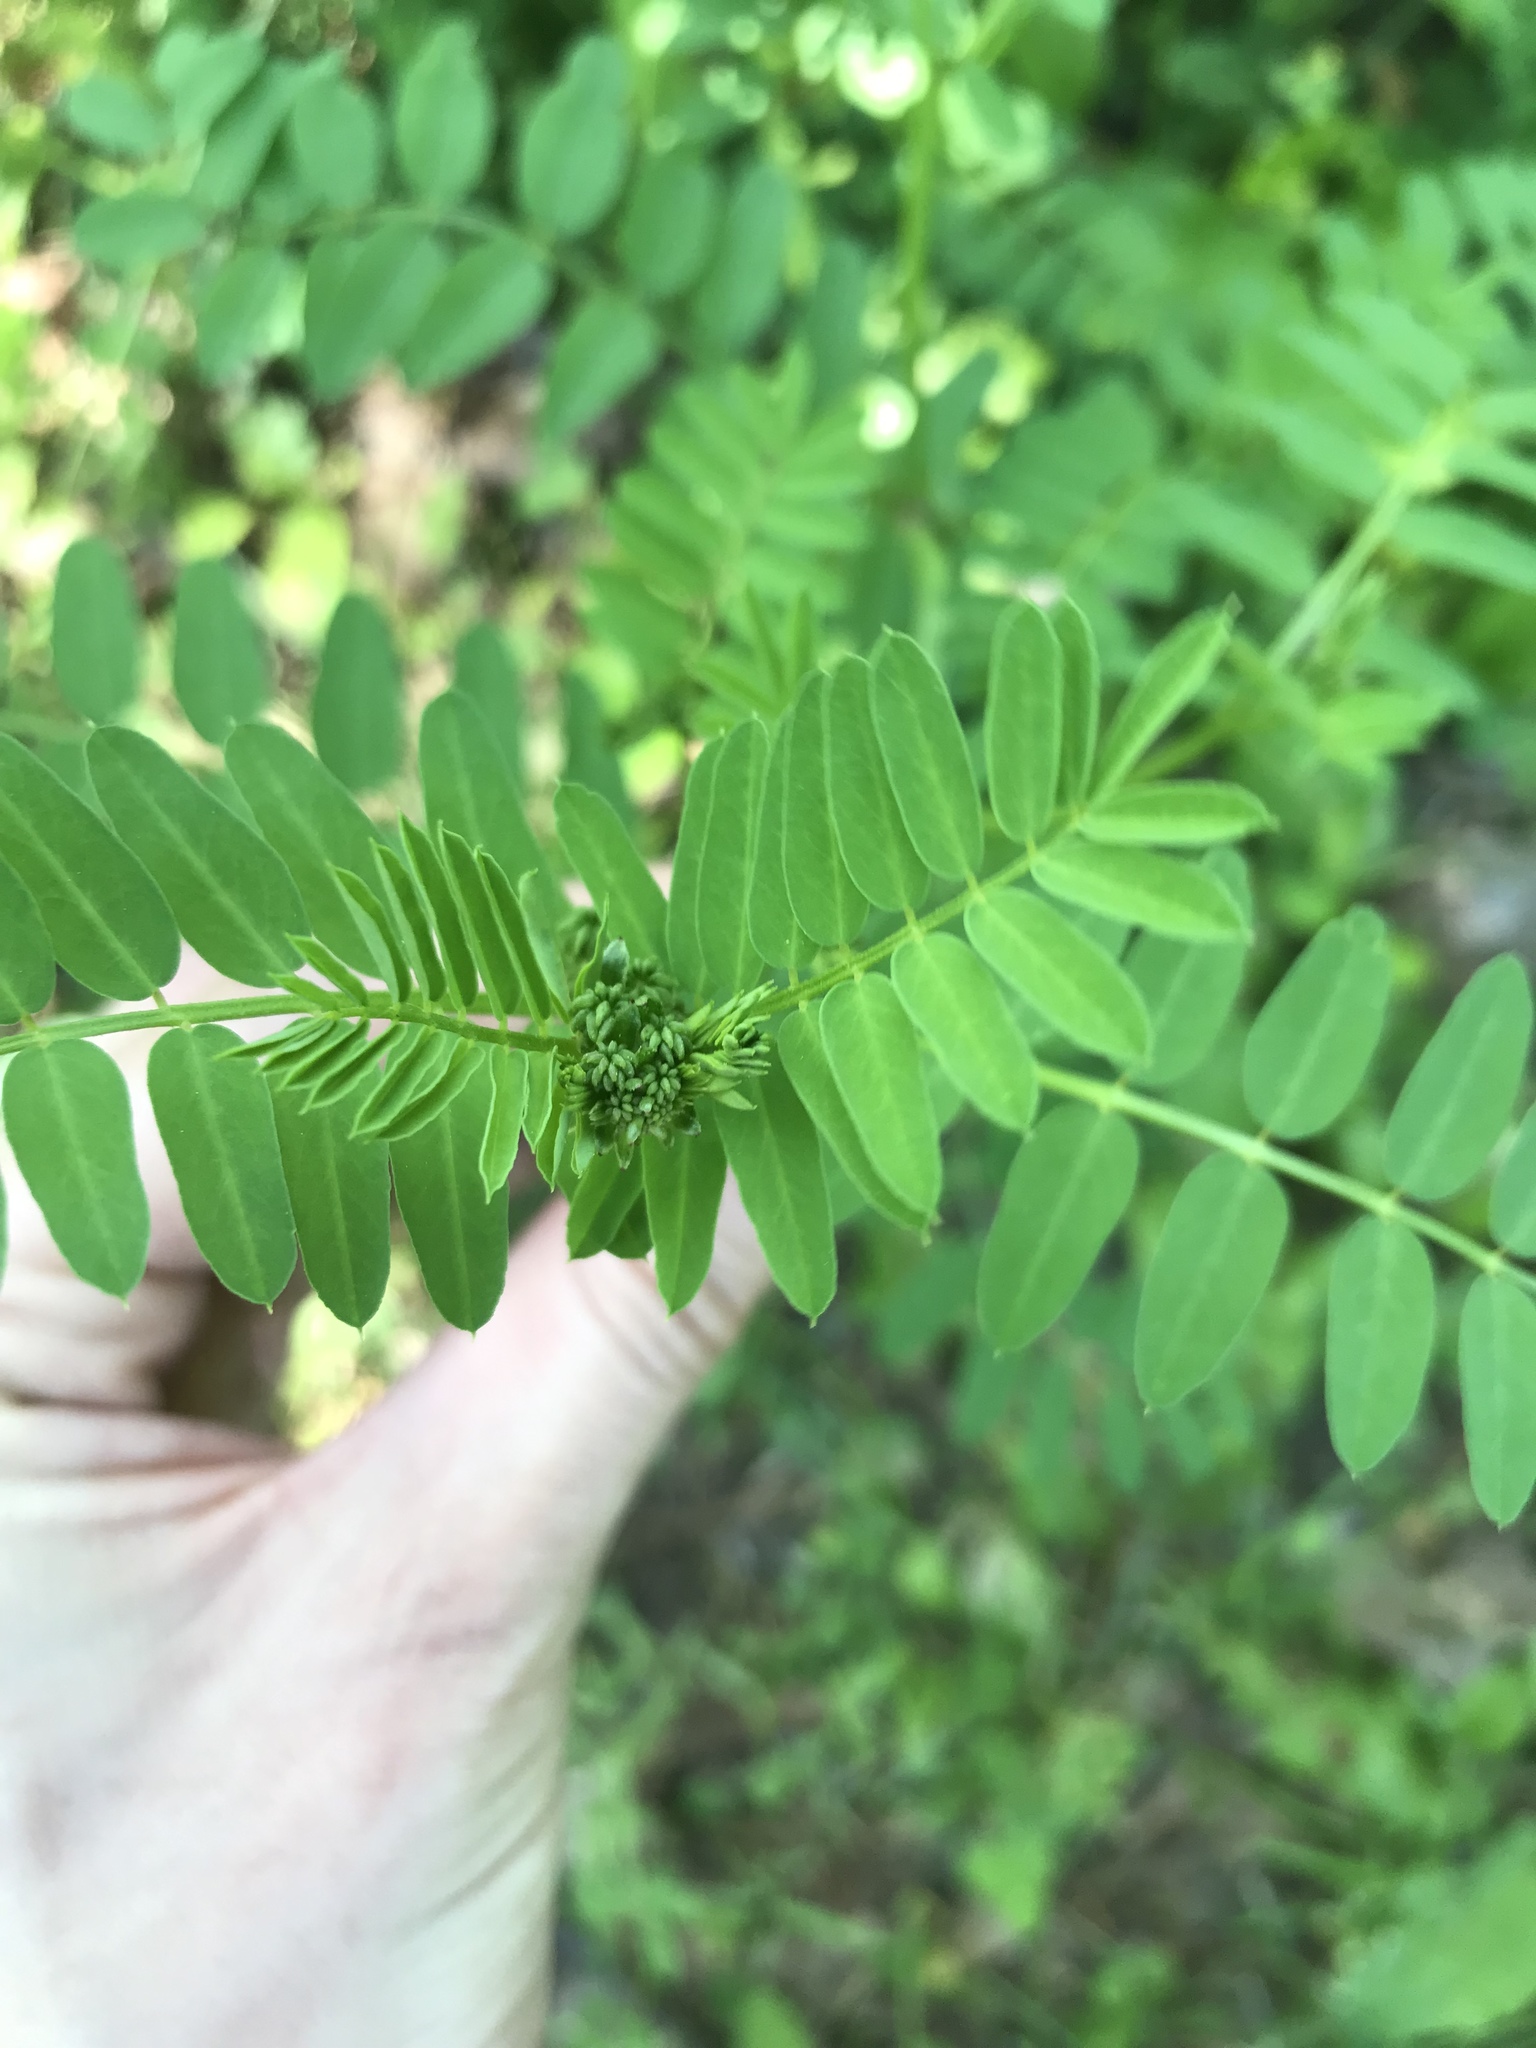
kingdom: Plantae
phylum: Tracheophyta
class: Magnoliopsida
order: Fabales
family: Fabaceae
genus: Coronilla
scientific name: Coronilla varia
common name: Crownvetch
